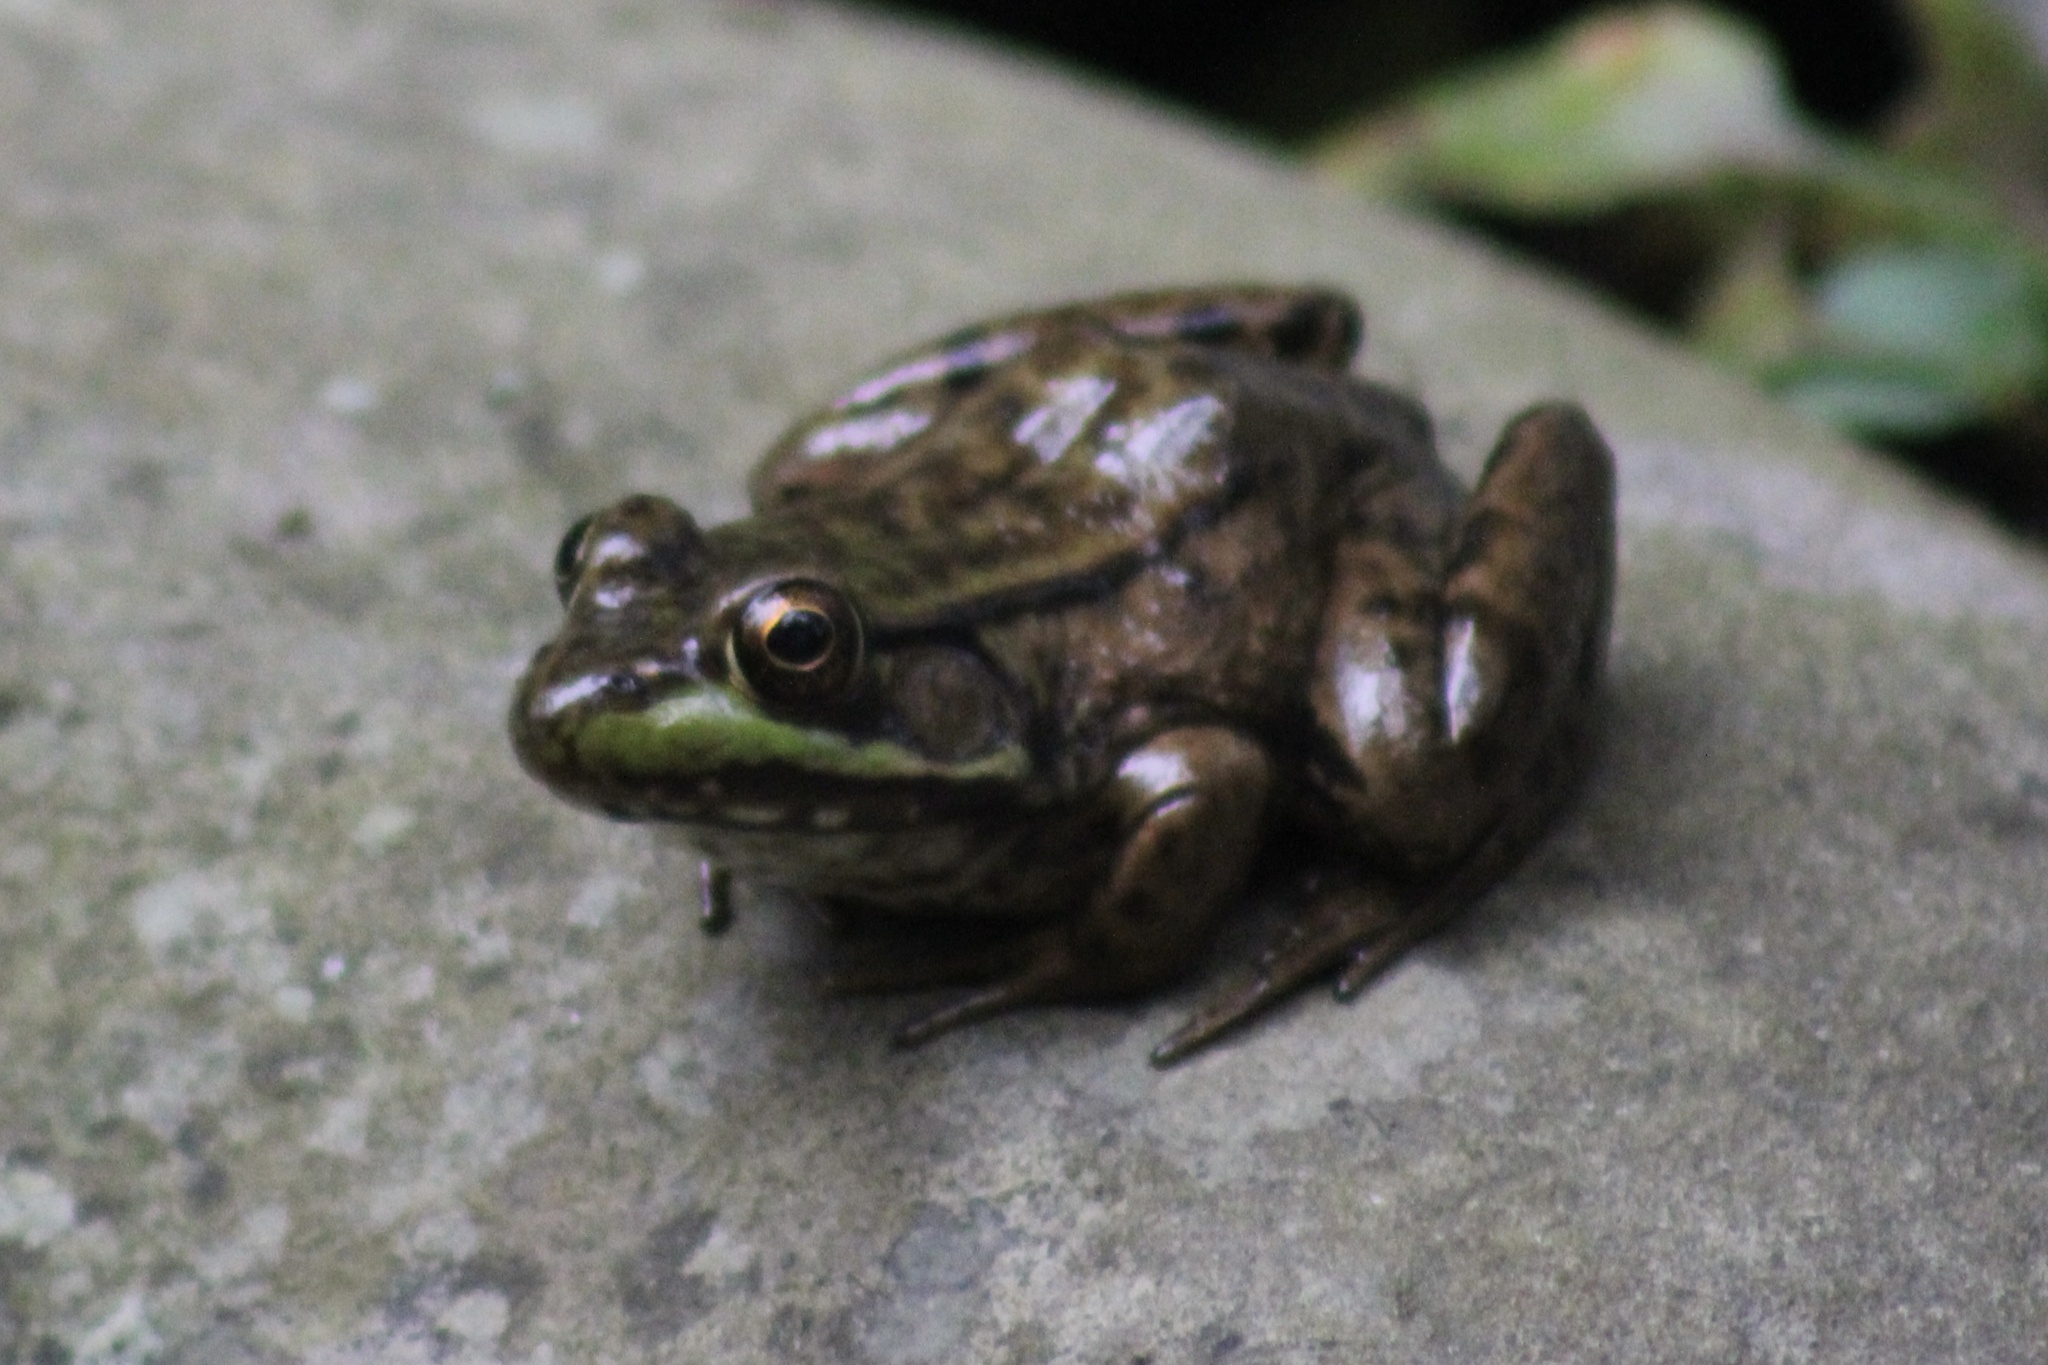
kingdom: Animalia
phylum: Chordata
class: Amphibia
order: Anura
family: Ranidae
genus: Lithobates
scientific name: Lithobates clamitans
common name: Green frog
